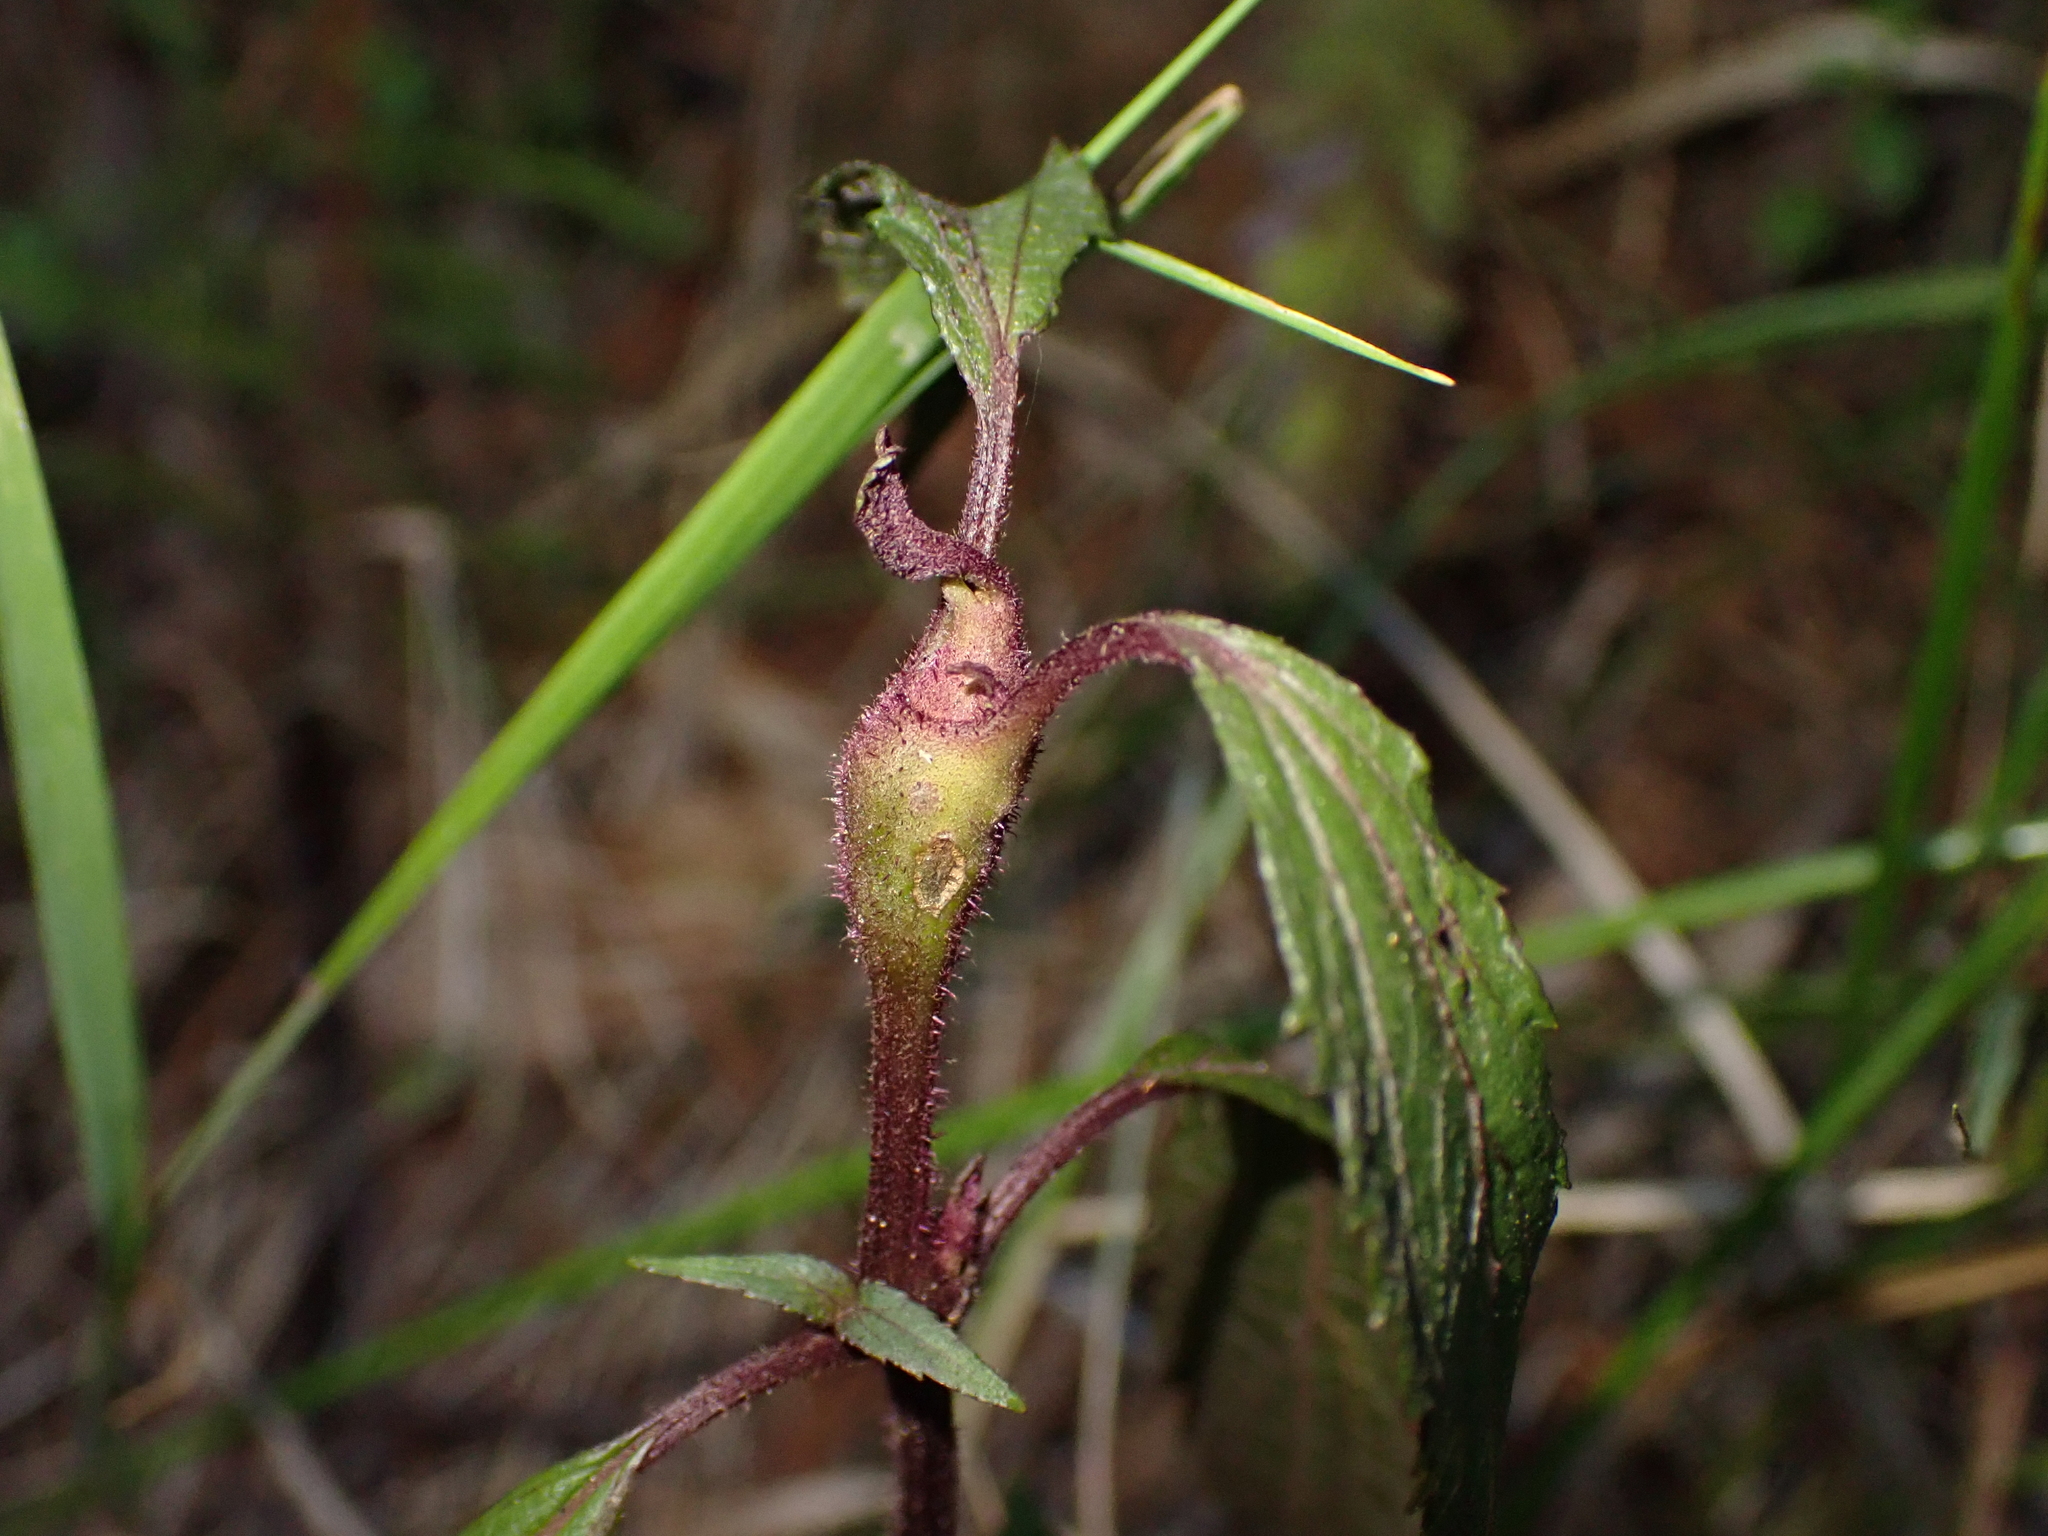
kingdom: Plantae
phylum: Tracheophyta
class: Magnoliopsida
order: Asterales
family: Asteraceae
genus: Ageratina
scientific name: Ageratina riparia
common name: Creeping croftonweed
